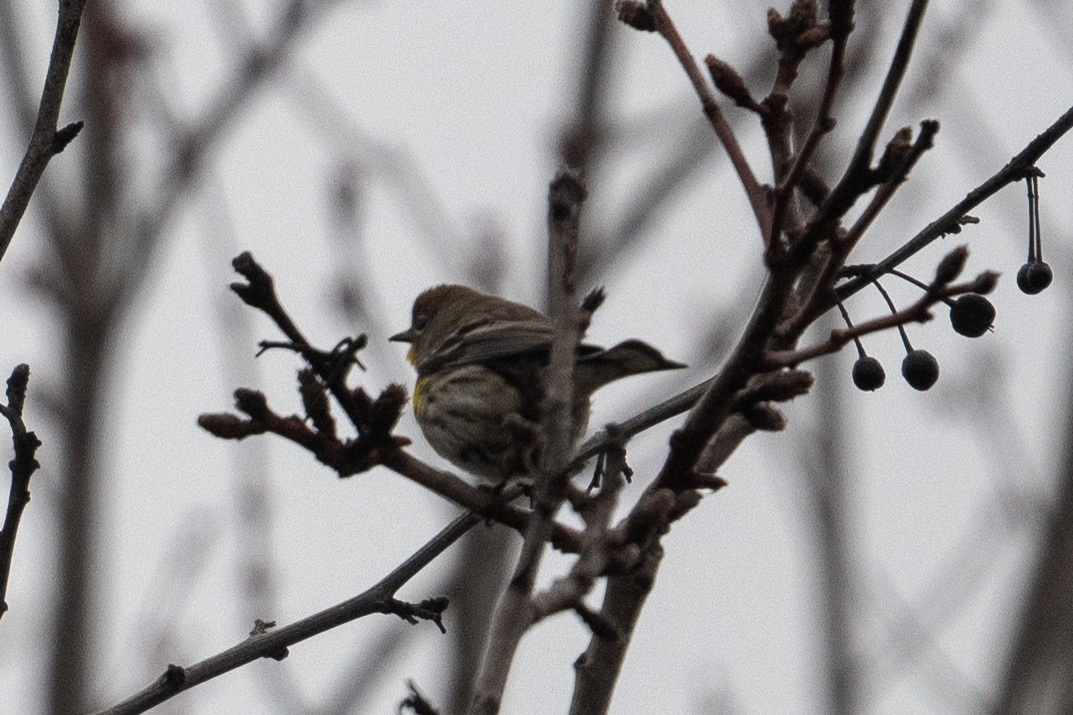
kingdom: Animalia
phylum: Chordata
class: Aves
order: Passeriformes
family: Parulidae
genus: Setophaga
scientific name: Setophaga coronata
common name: Myrtle warbler
